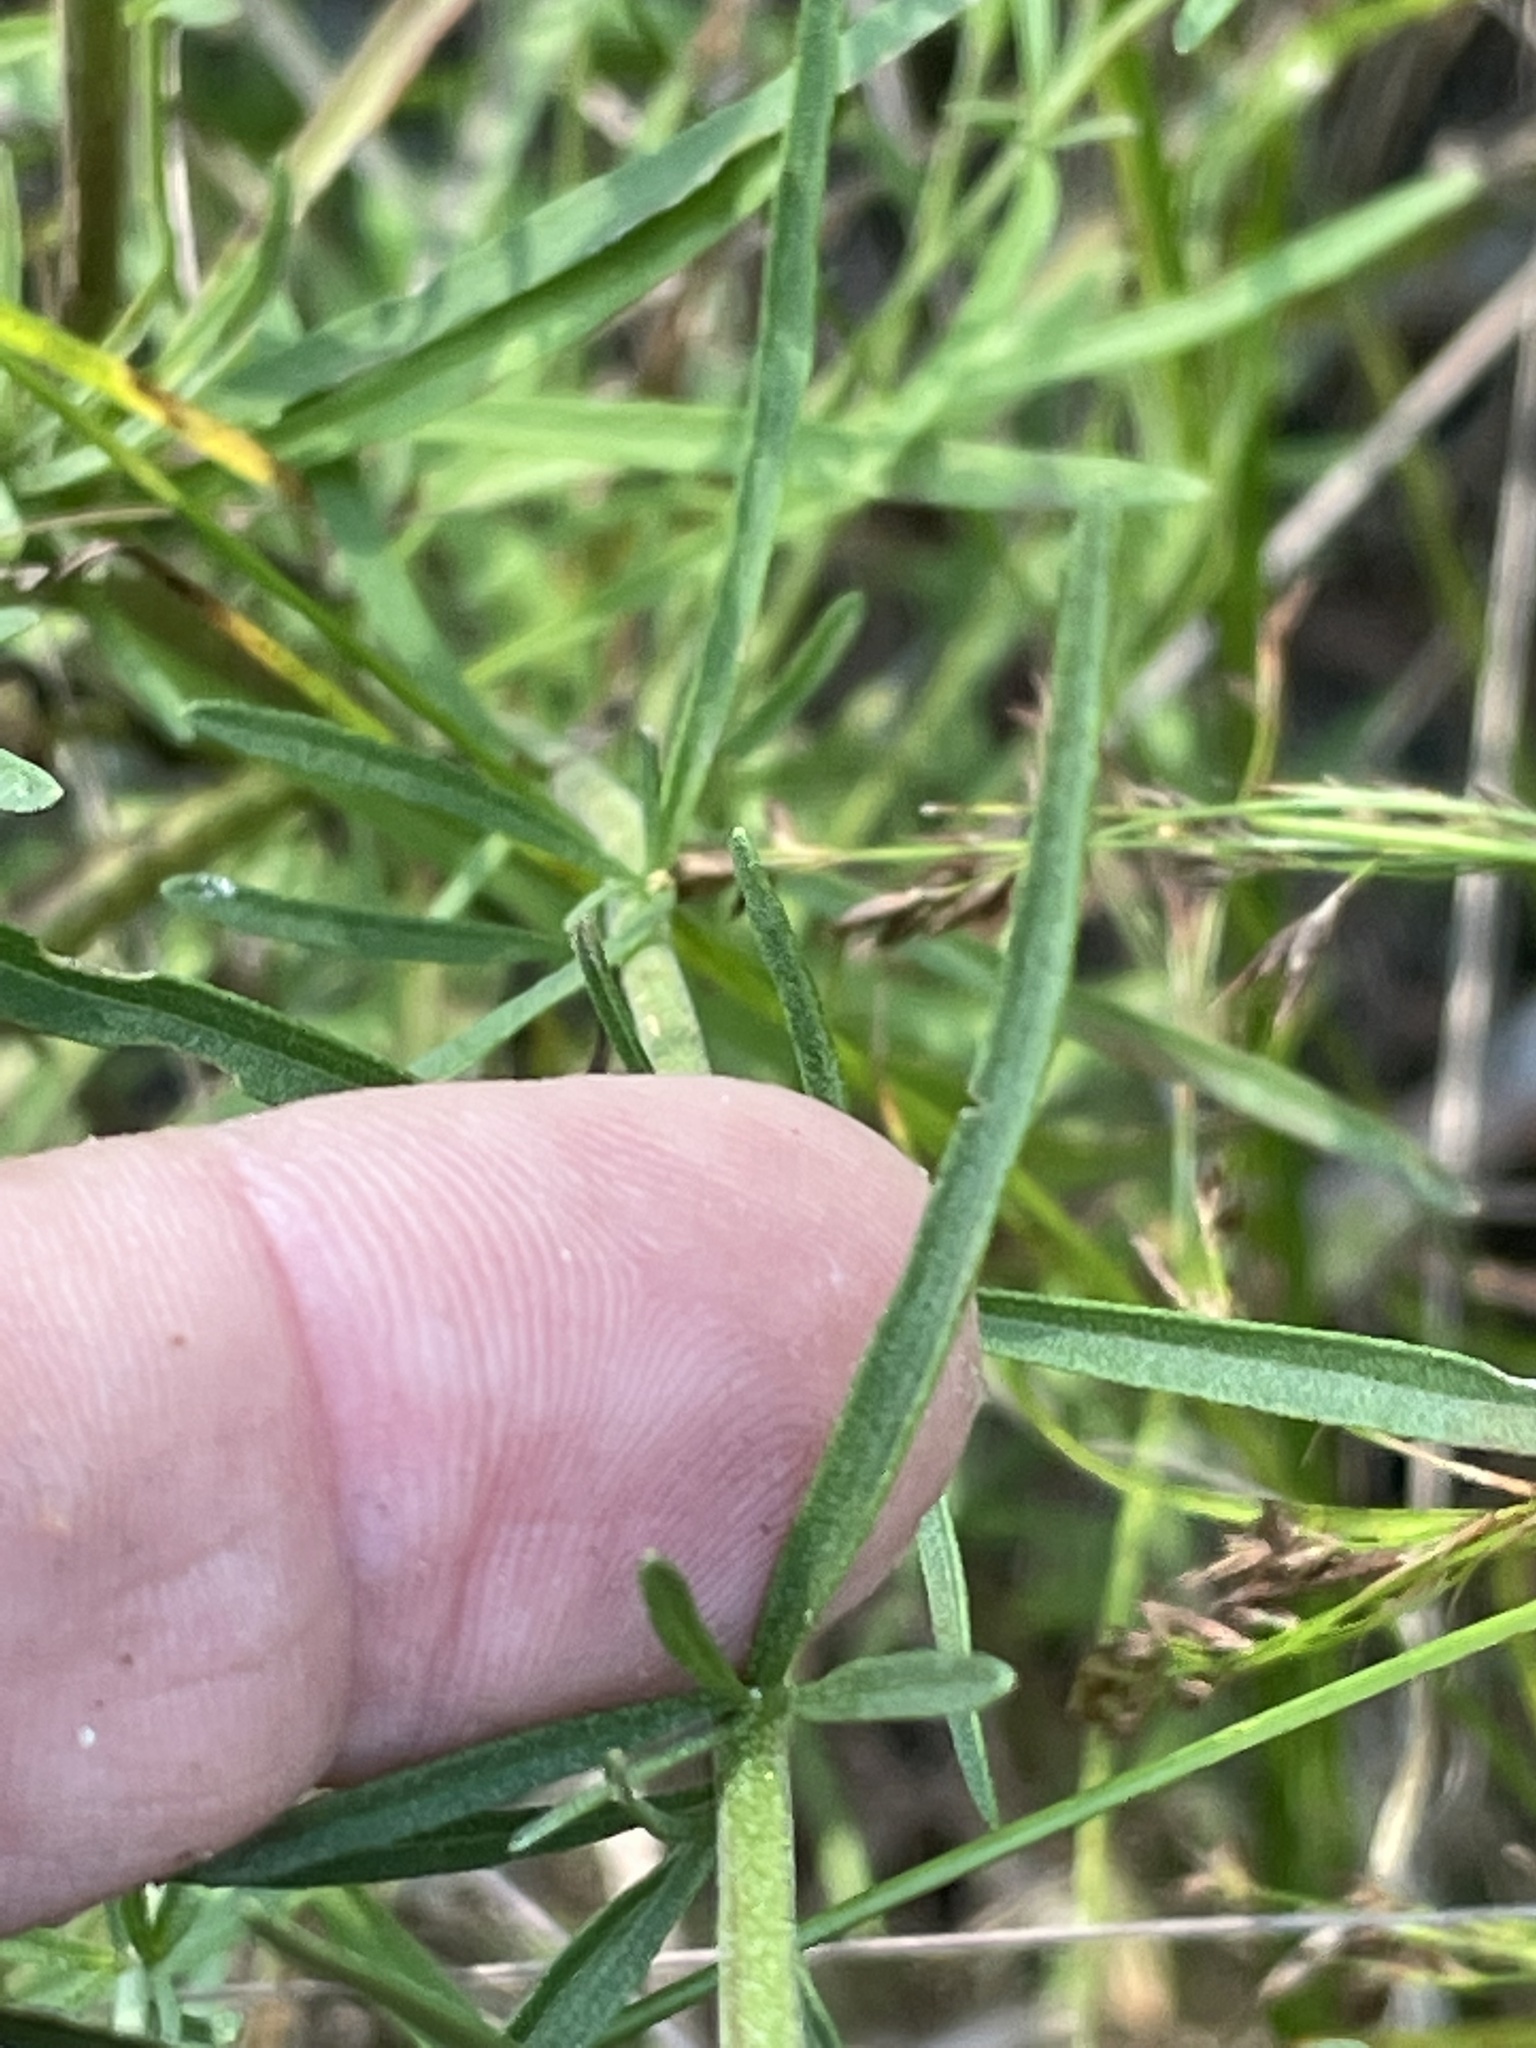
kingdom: Plantae
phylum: Tracheophyta
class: Magnoliopsida
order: Asterales
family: Asteraceae
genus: Eupatorium
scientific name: Eupatorium hyssopifolium
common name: Hyssop-leaf thoroughwort
